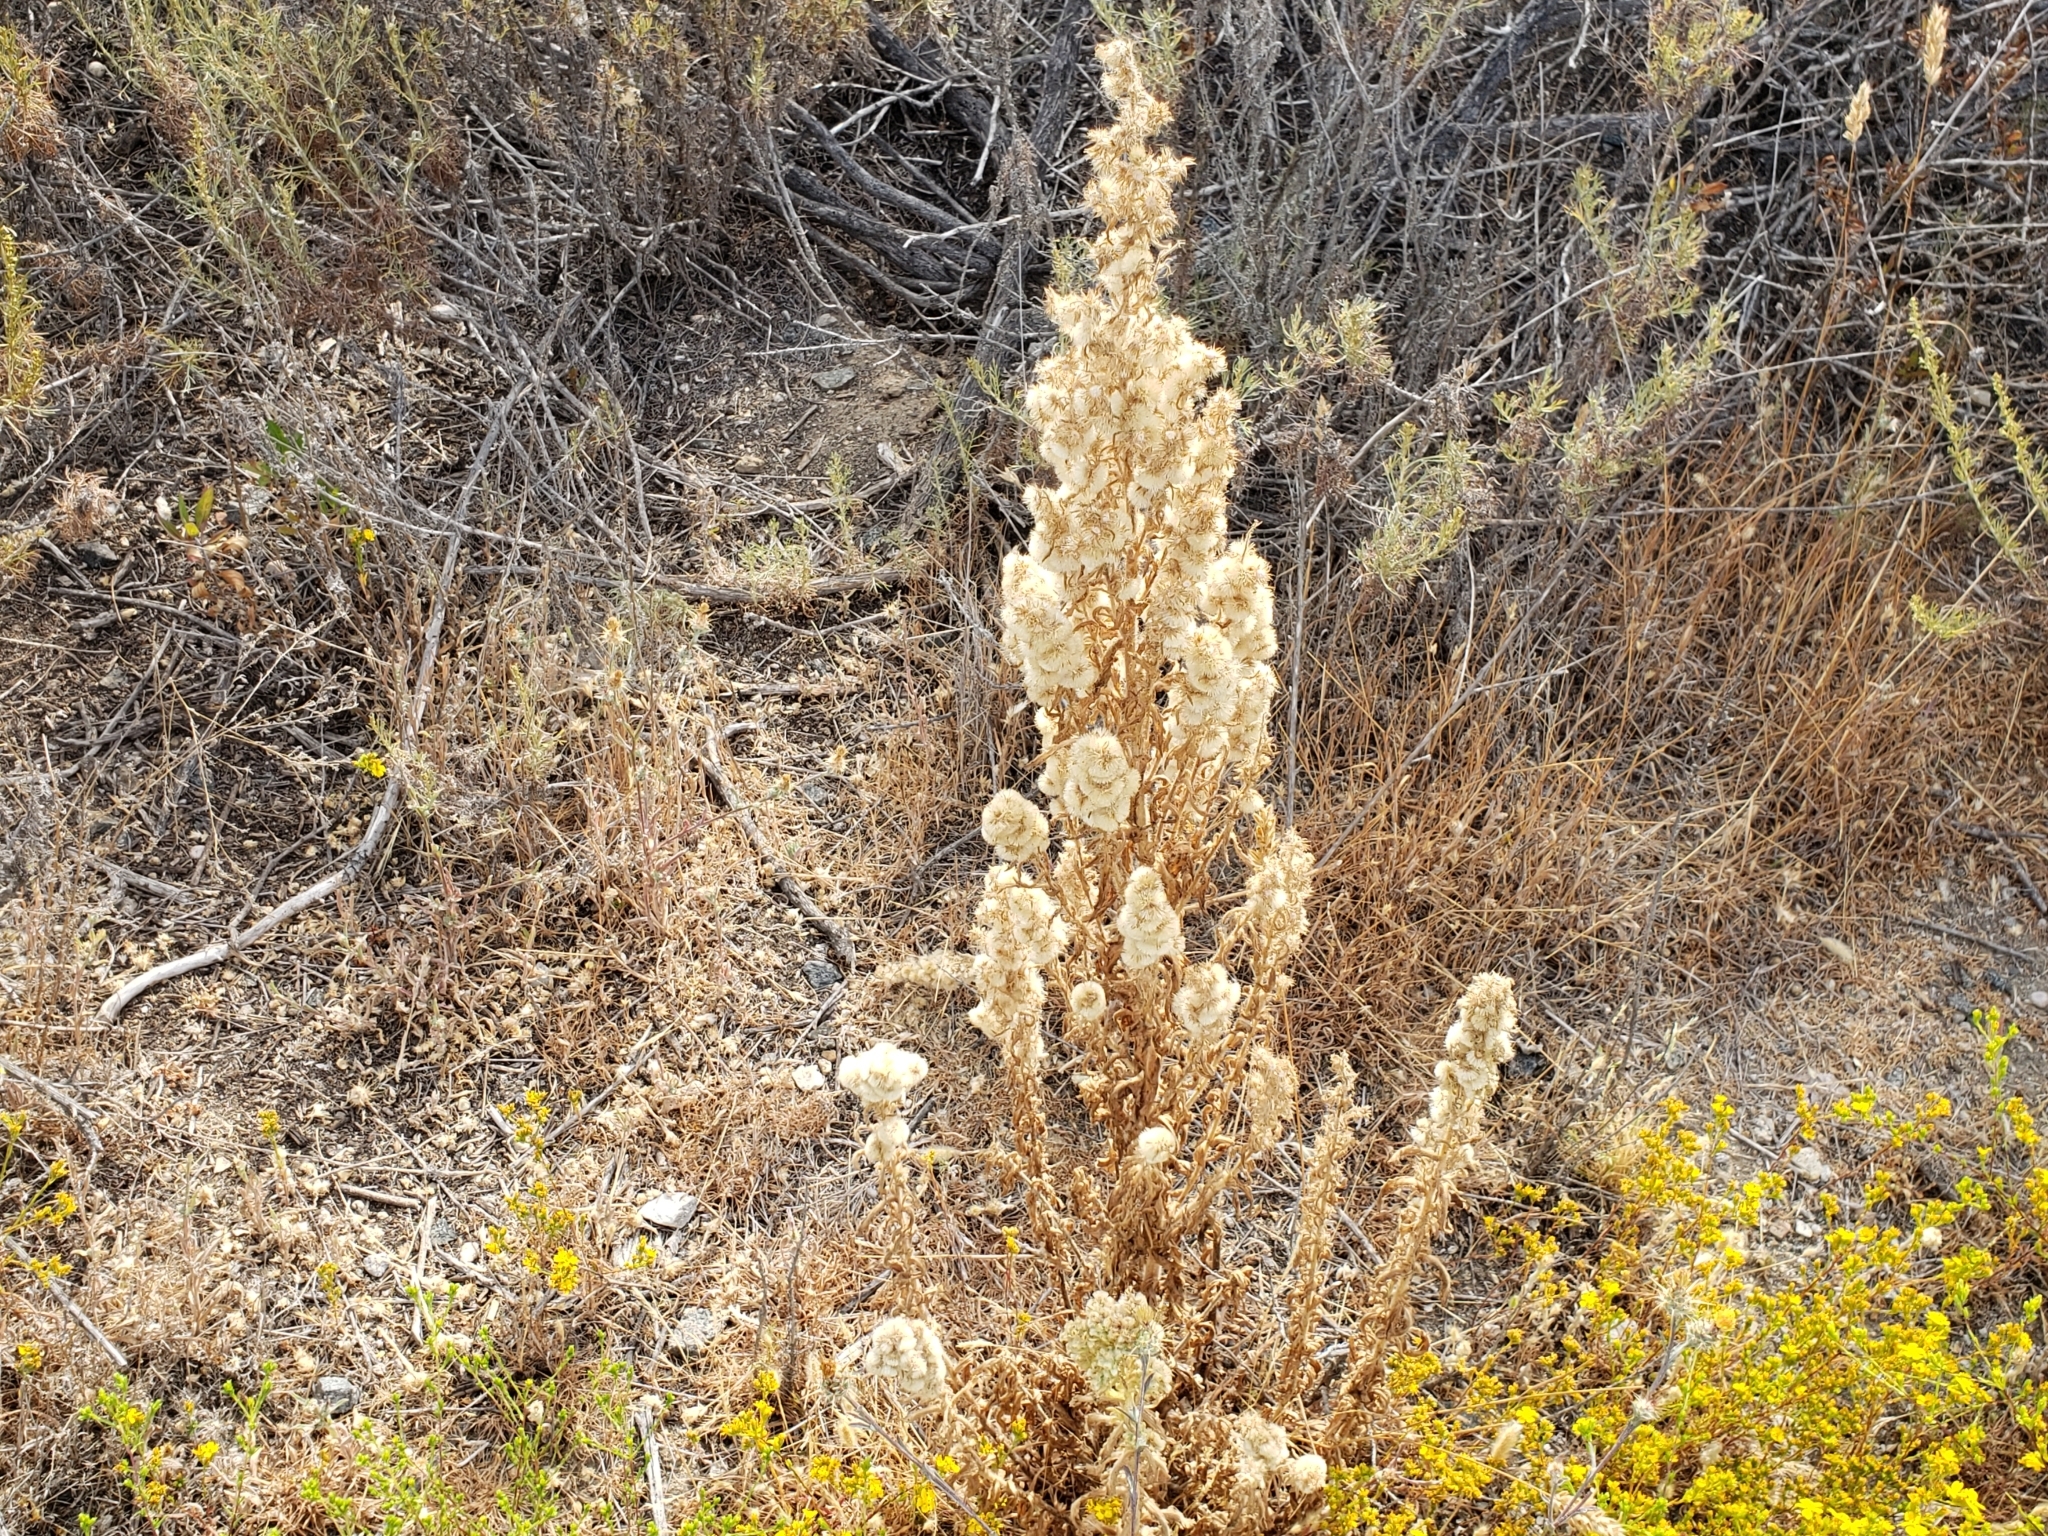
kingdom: Plantae
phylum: Tracheophyta
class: Magnoliopsida
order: Asterales
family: Asteraceae
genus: Laennecia
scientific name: Laennecia coulteri
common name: Coulter's woolwort
